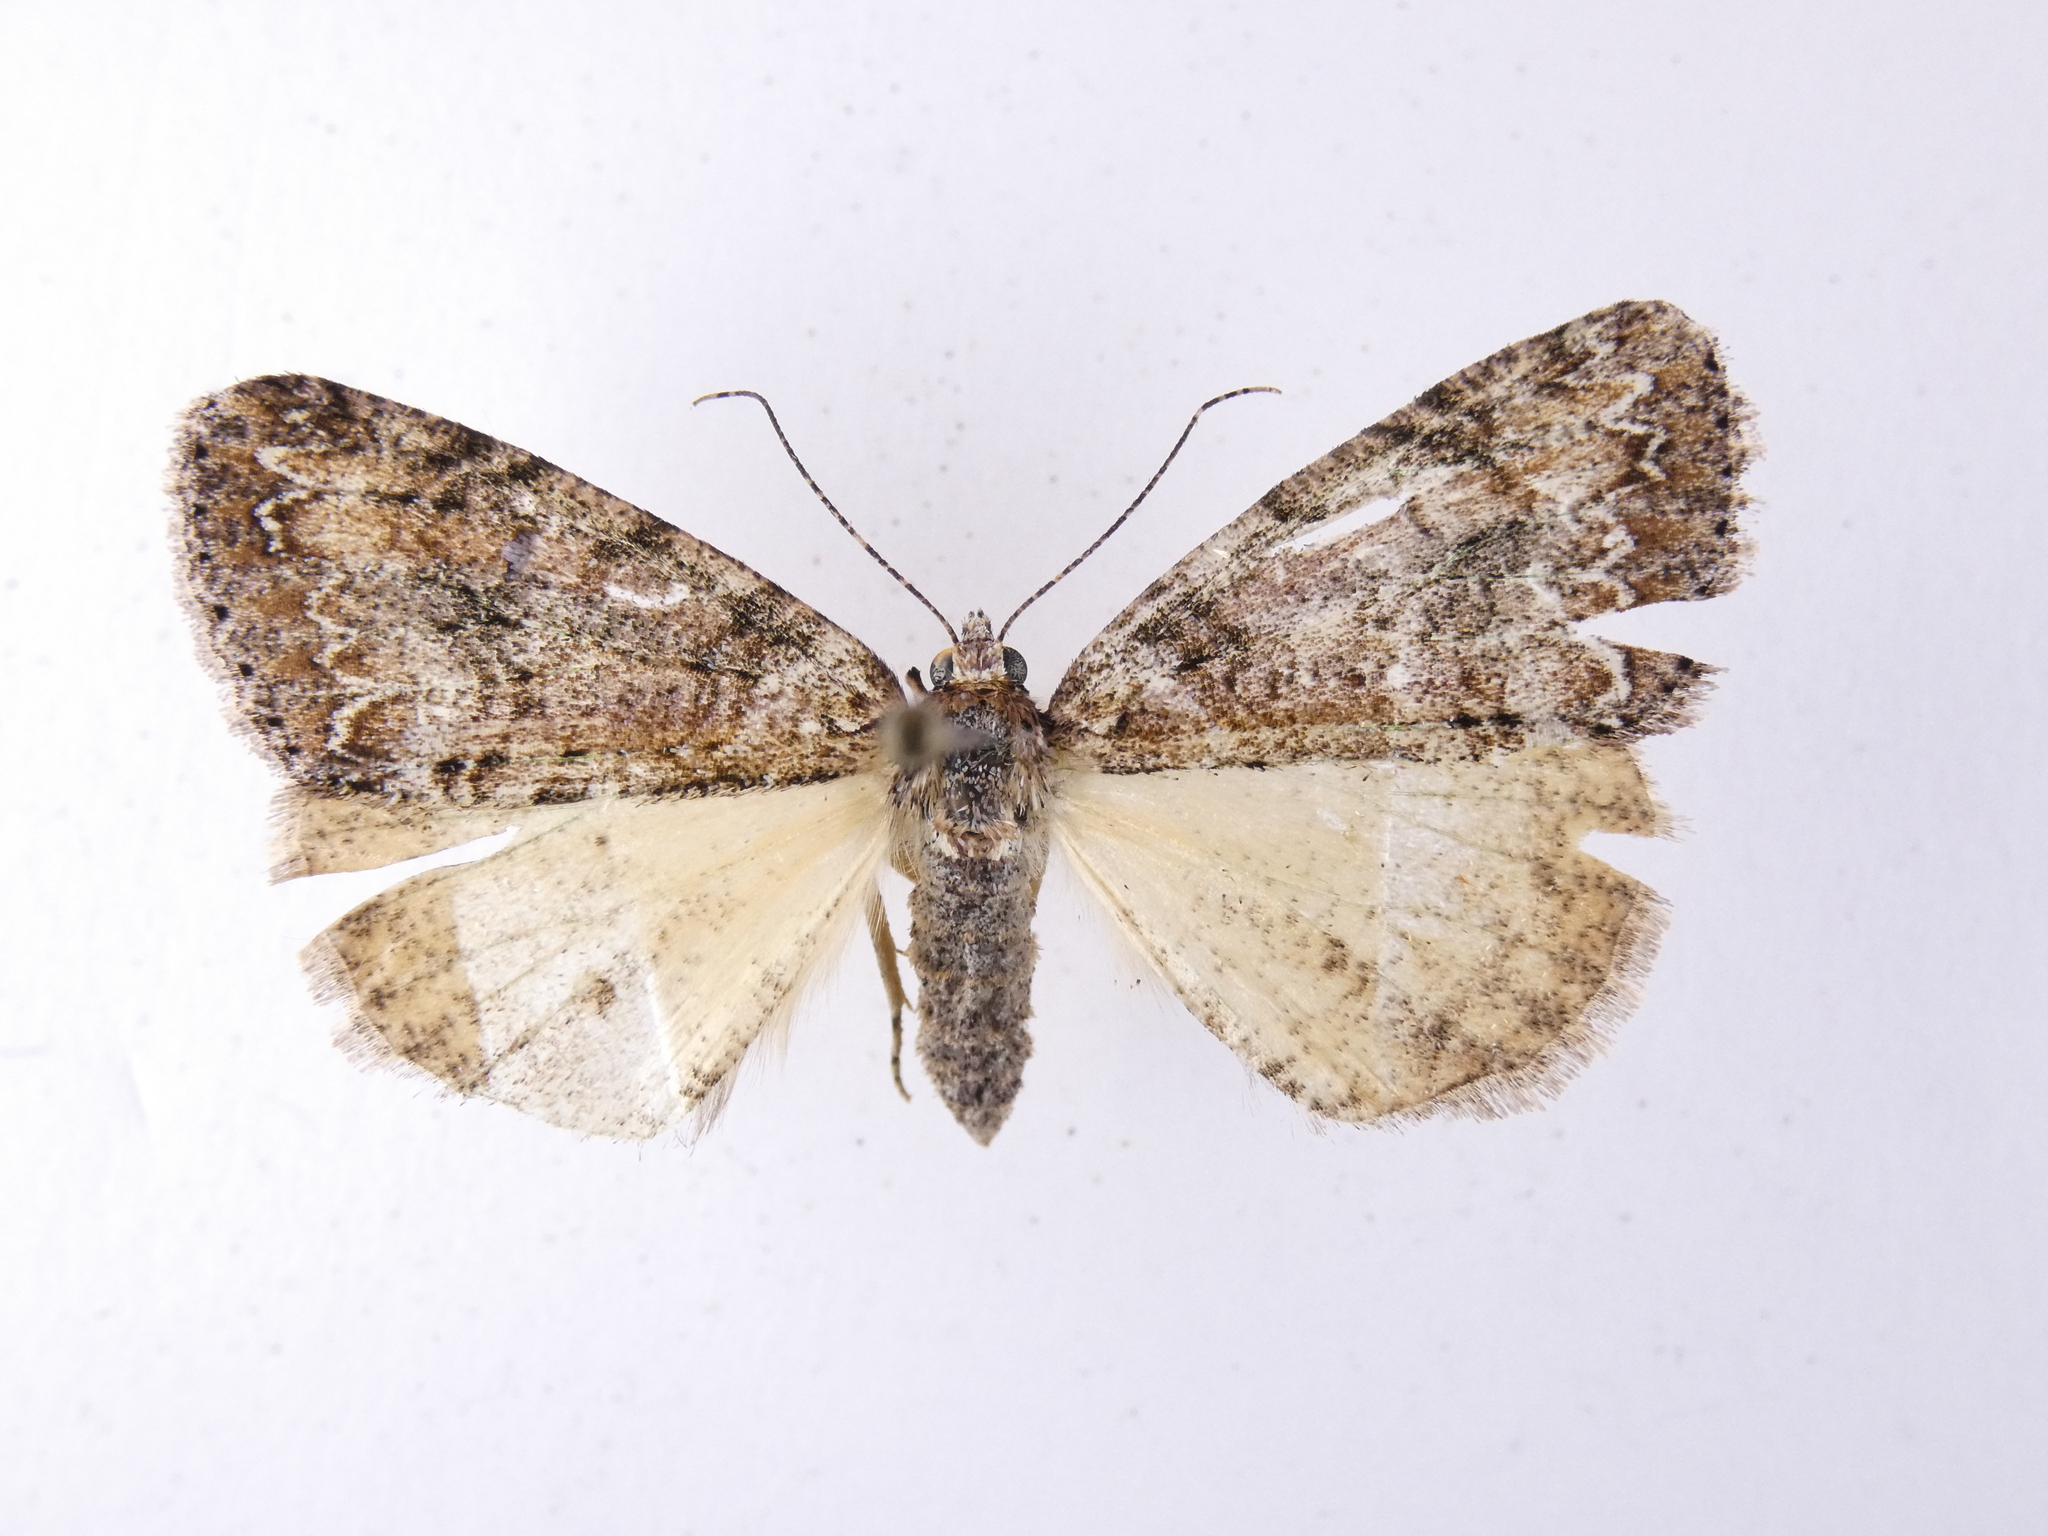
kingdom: Animalia
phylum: Arthropoda
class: Insecta
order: Lepidoptera
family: Geometridae
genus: Pseudocoremia
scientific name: Pseudocoremia suavis
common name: Common forest looper
